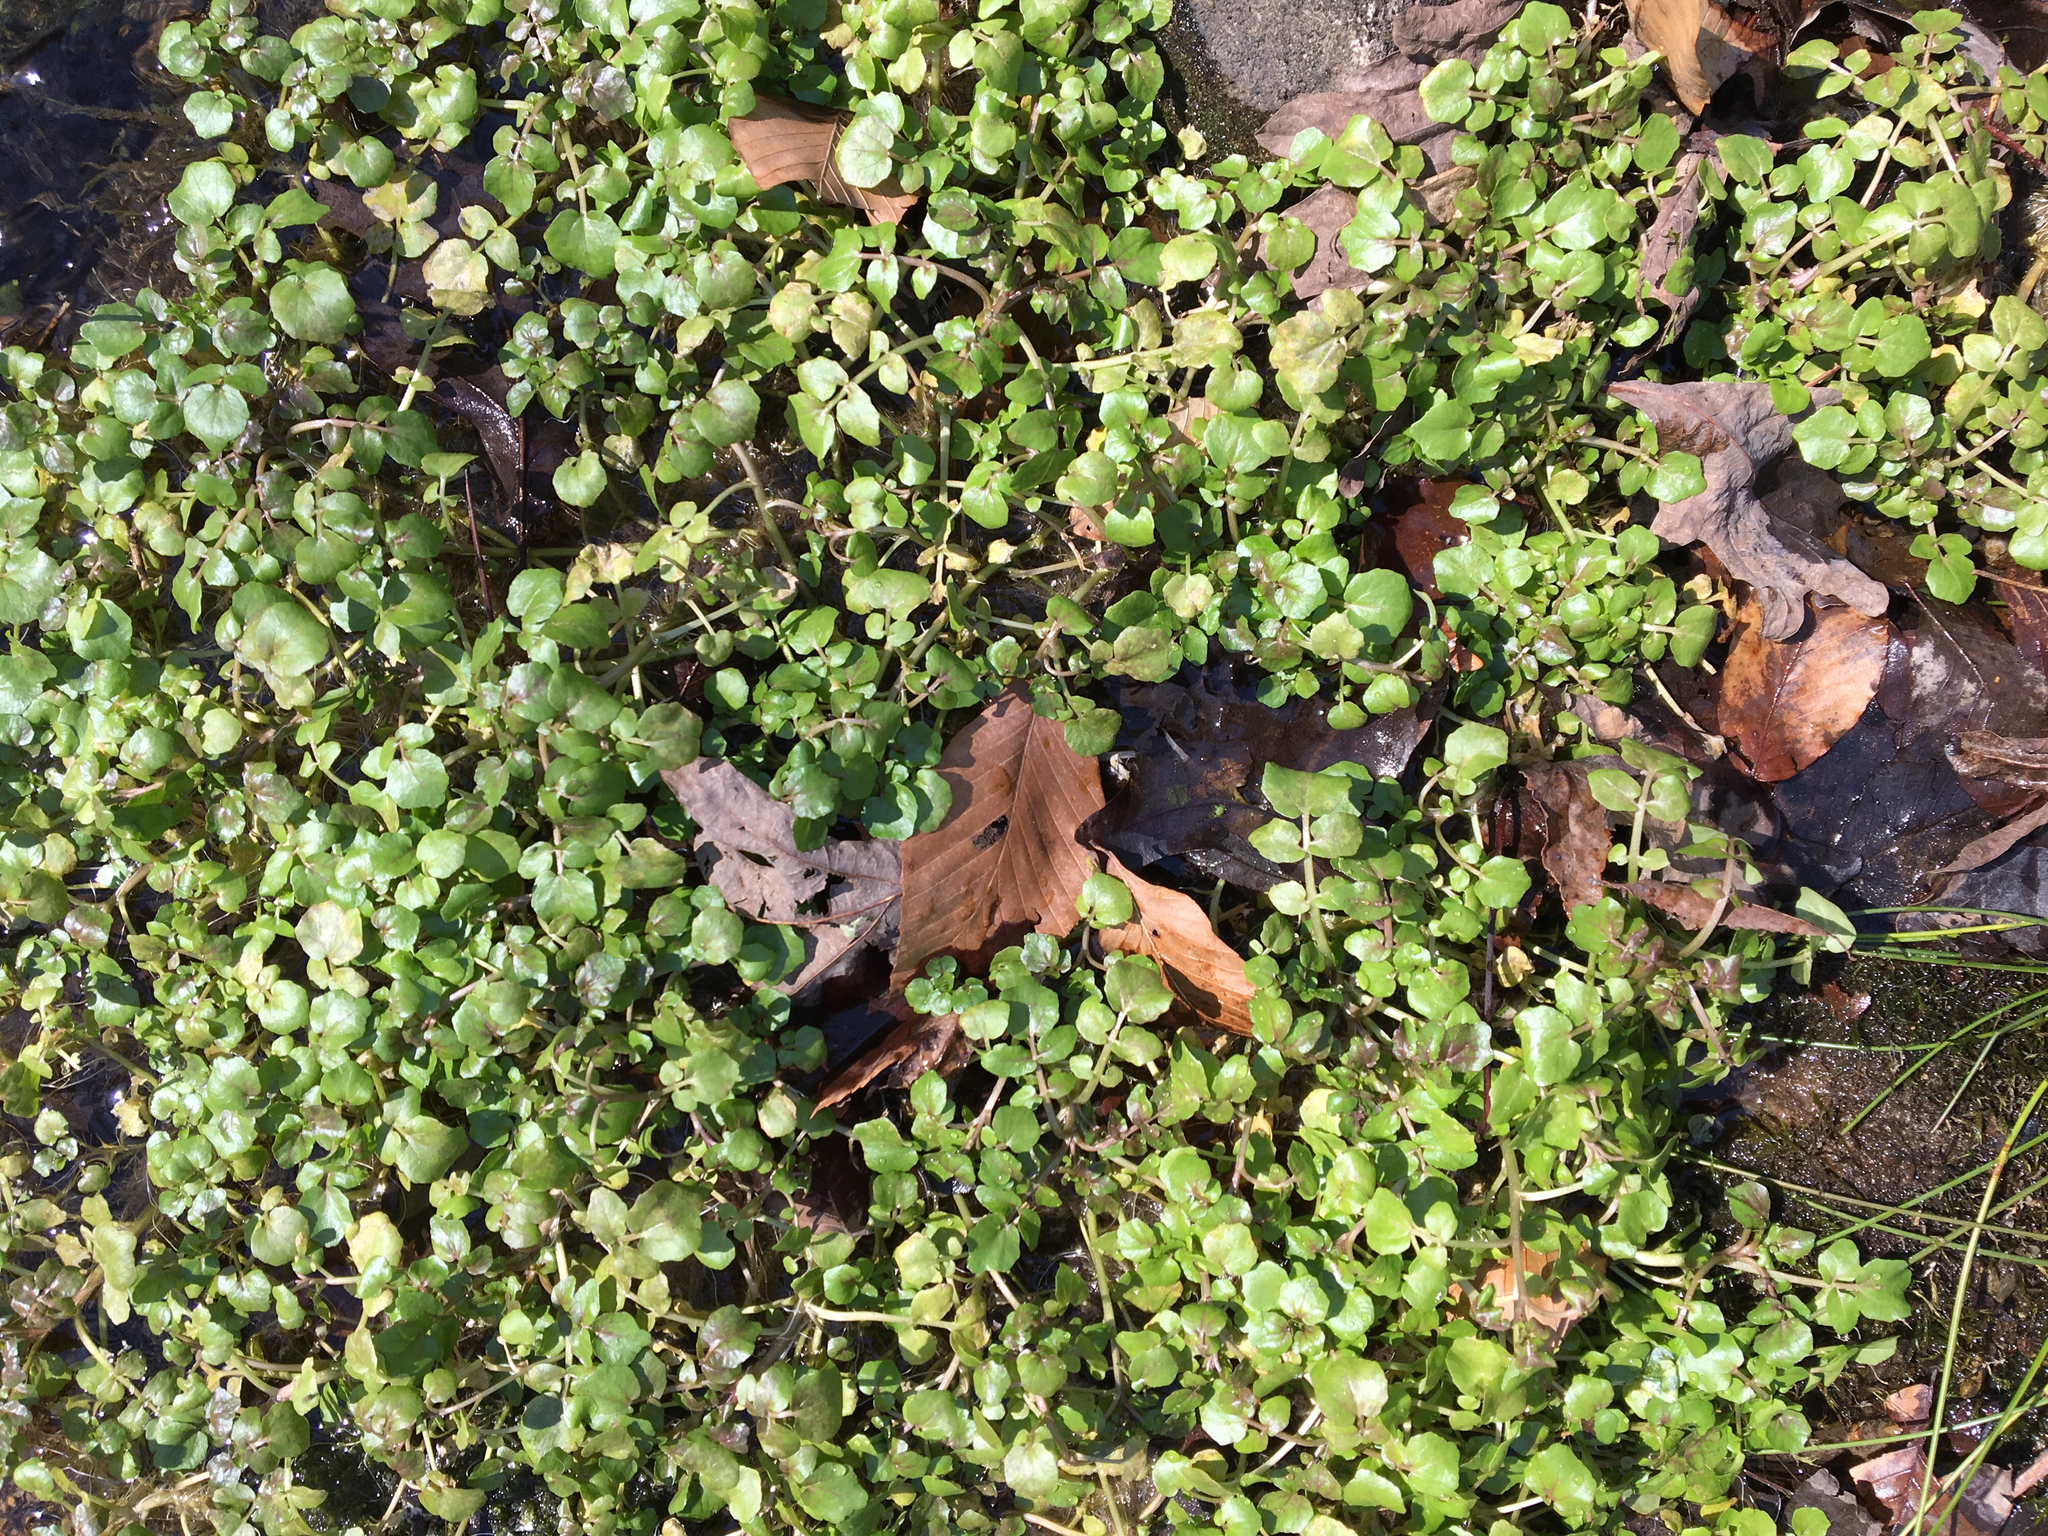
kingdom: Plantae
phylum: Tracheophyta
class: Magnoliopsida
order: Brassicales
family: Brassicaceae
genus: Nasturtium
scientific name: Nasturtium officinale
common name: Watercress
